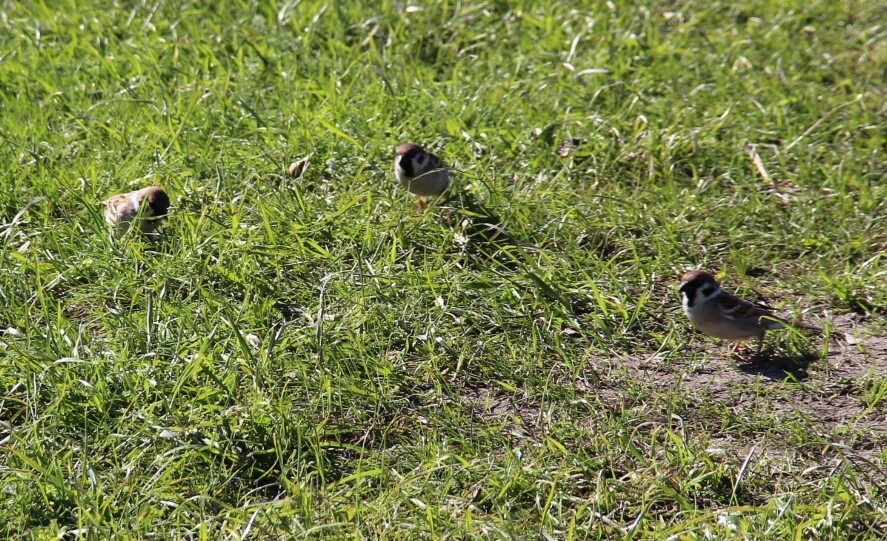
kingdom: Animalia
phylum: Chordata
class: Aves
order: Passeriformes
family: Passeridae
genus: Passer
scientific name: Passer montanus
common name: Eurasian tree sparrow
